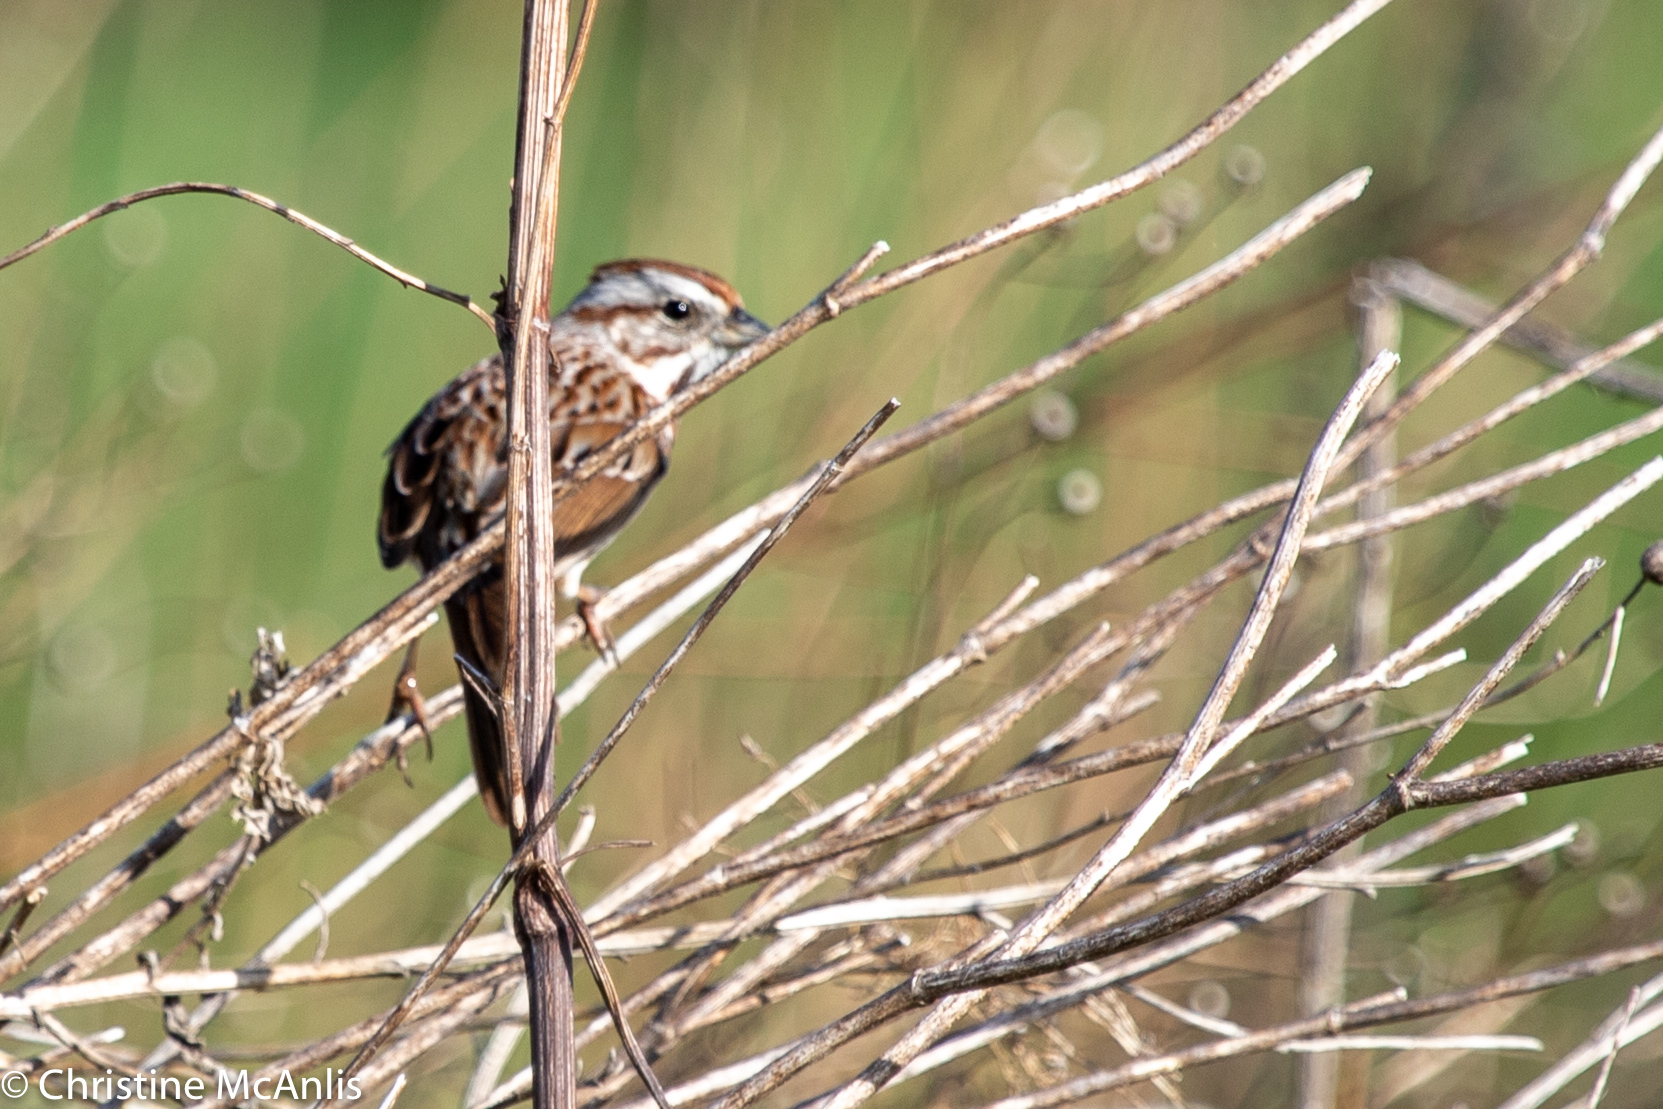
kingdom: Animalia
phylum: Chordata
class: Aves
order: Passeriformes
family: Passerellidae
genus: Melospiza
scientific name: Melospiza melodia
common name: Song sparrow
